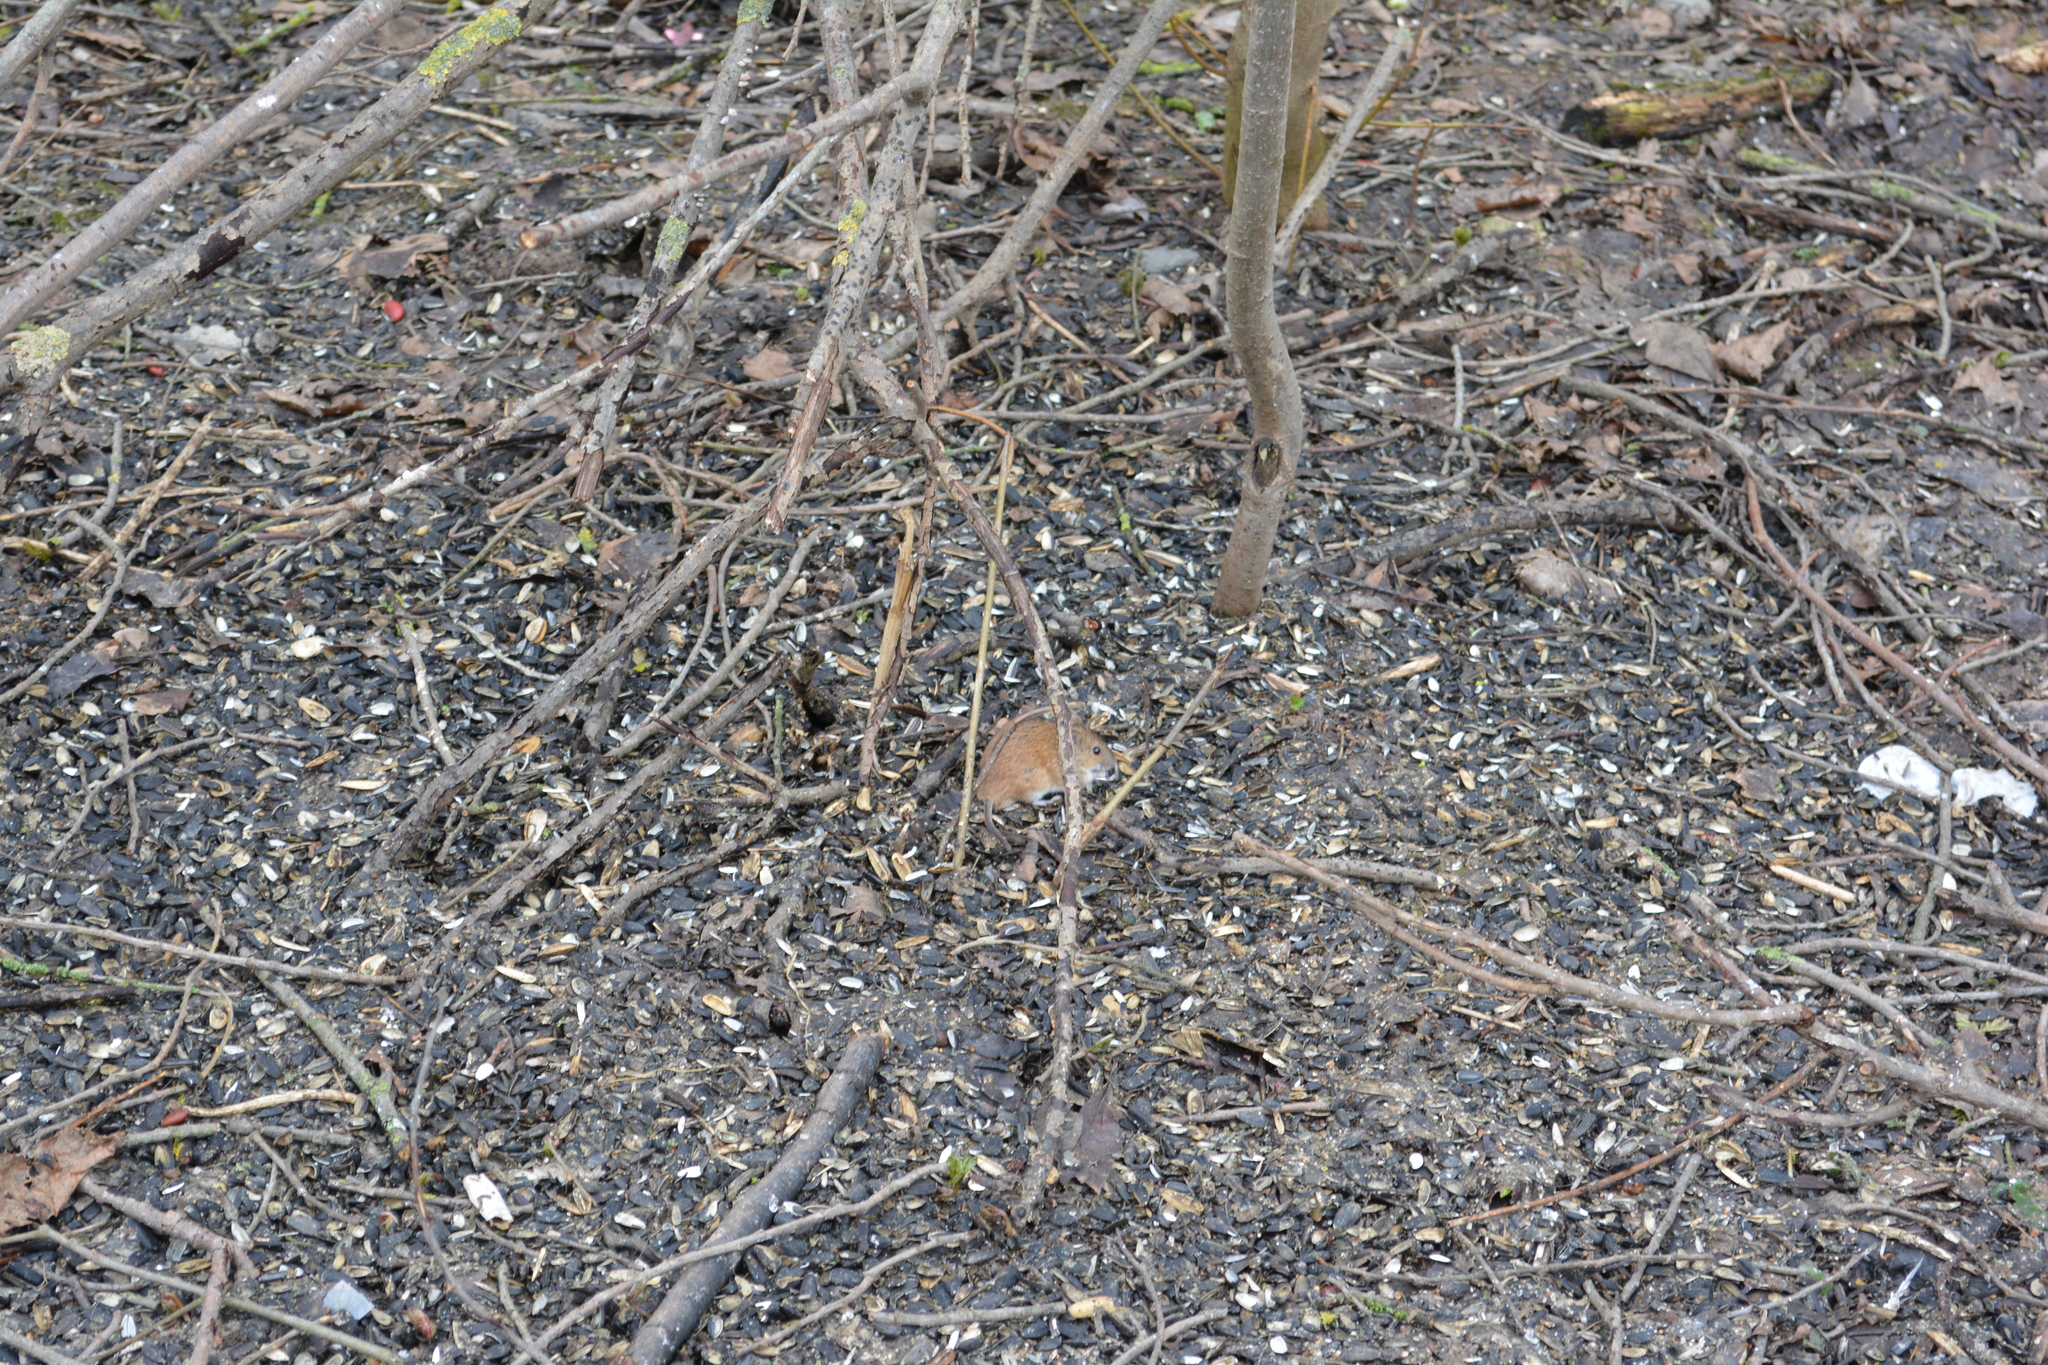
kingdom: Animalia
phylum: Chordata
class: Mammalia
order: Rodentia
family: Muridae
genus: Apodemus
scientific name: Apodemus agrarius
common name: Striped field mouse
